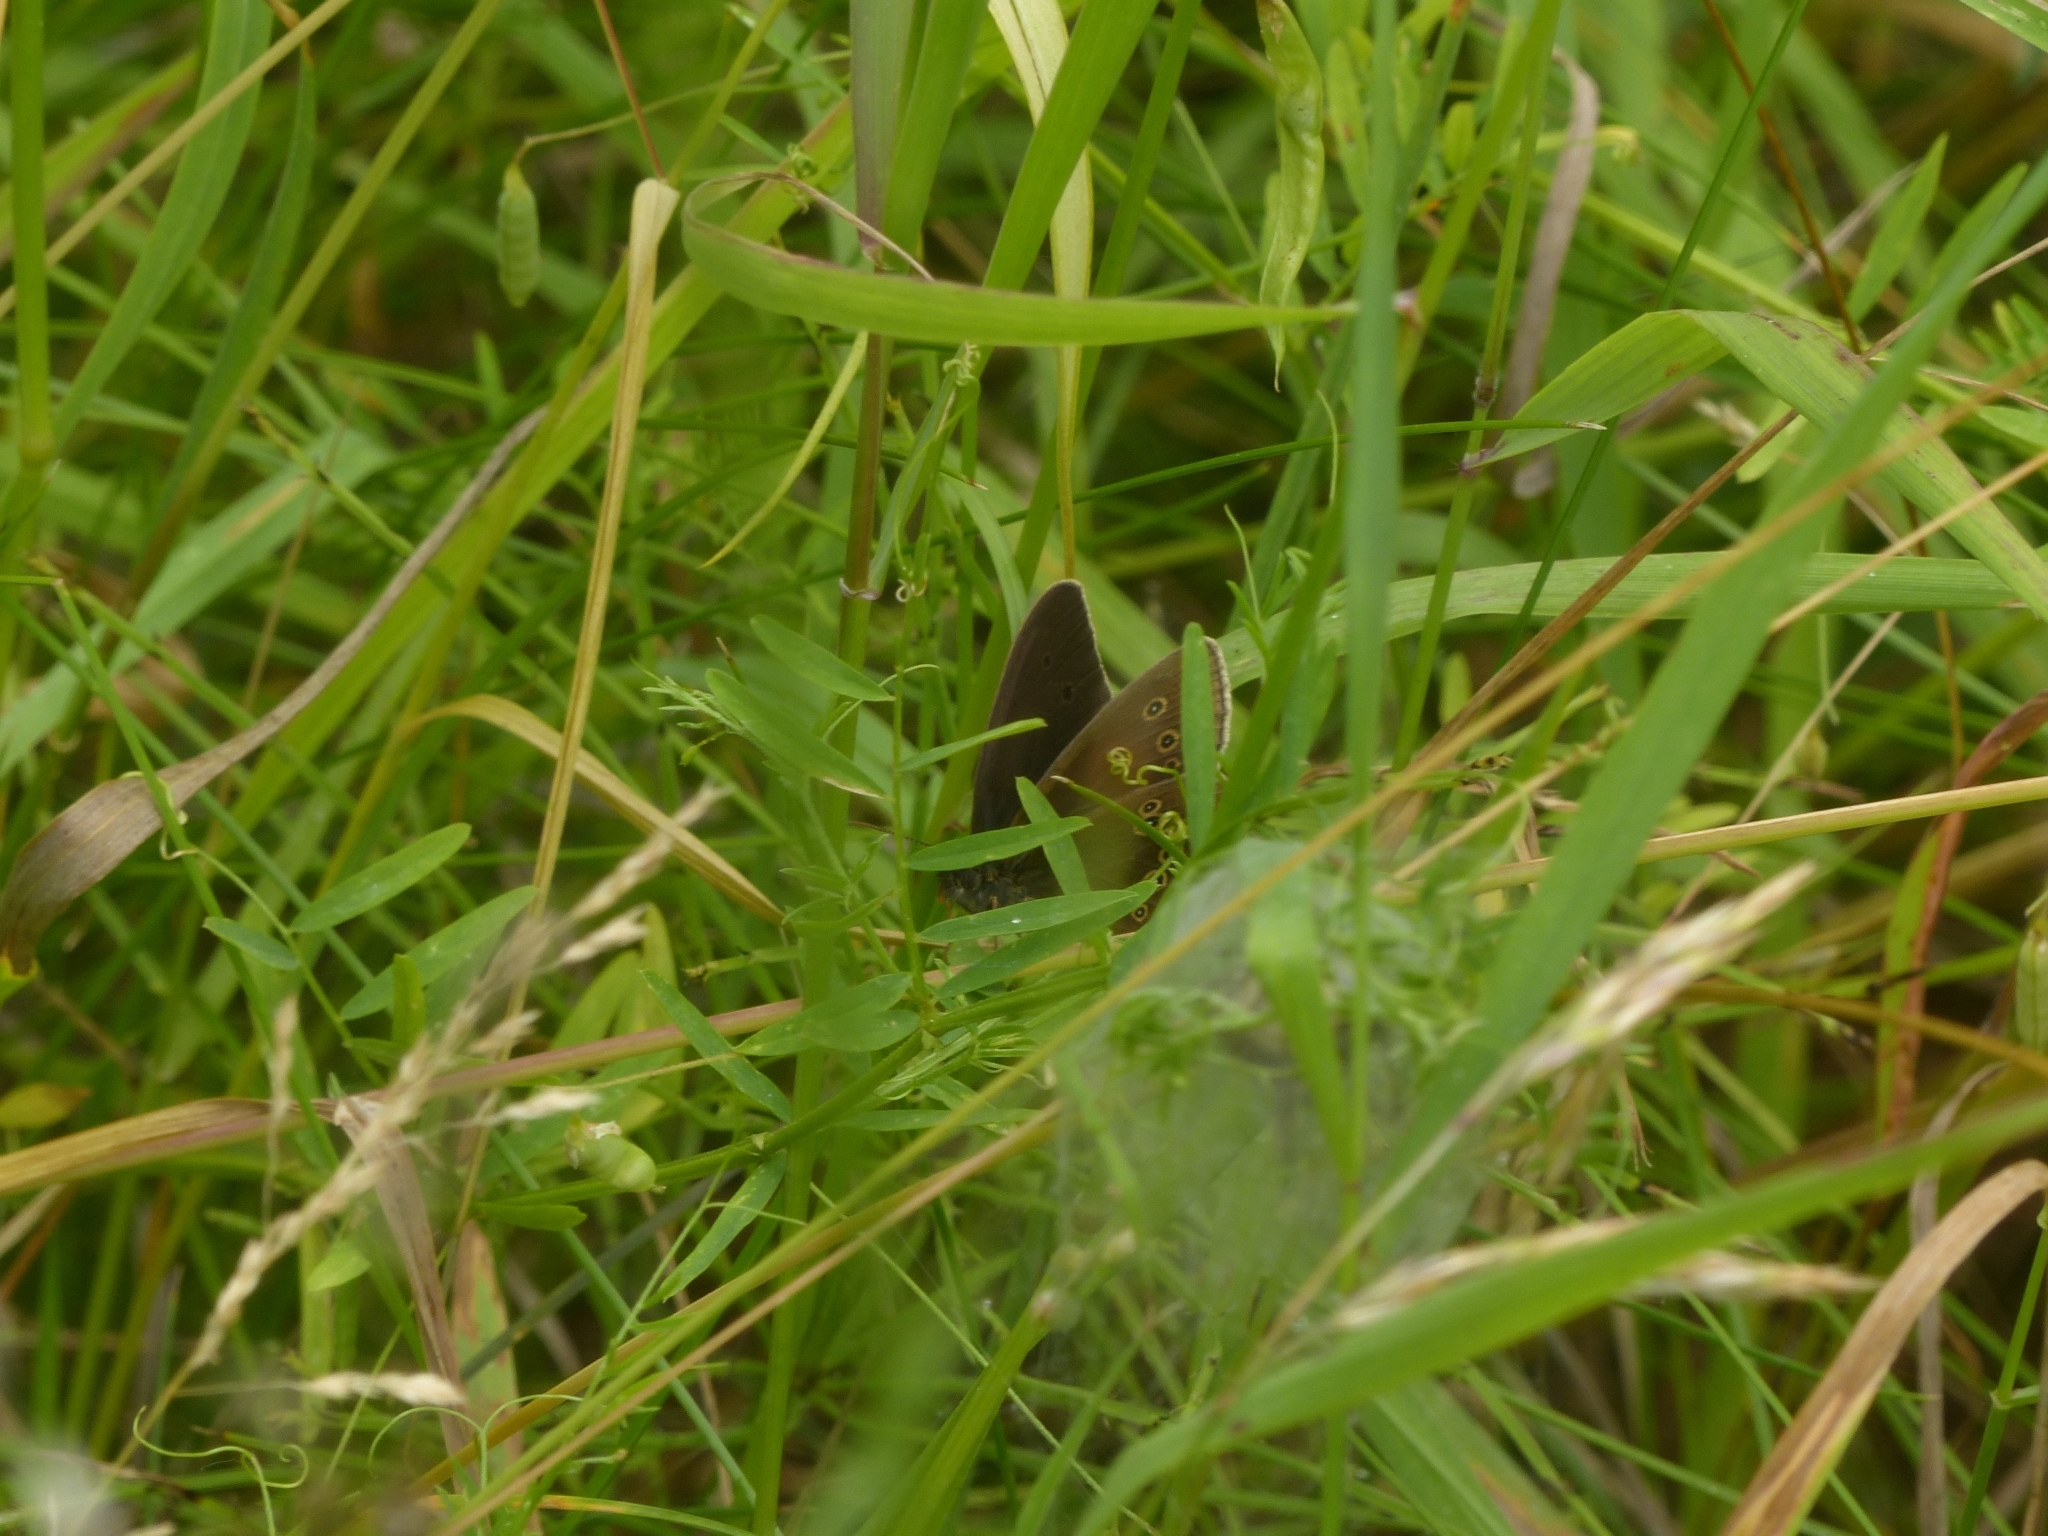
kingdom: Animalia
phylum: Arthropoda
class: Insecta
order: Lepidoptera
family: Nymphalidae
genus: Aphantopus
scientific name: Aphantopus hyperantus
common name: Ringlet
